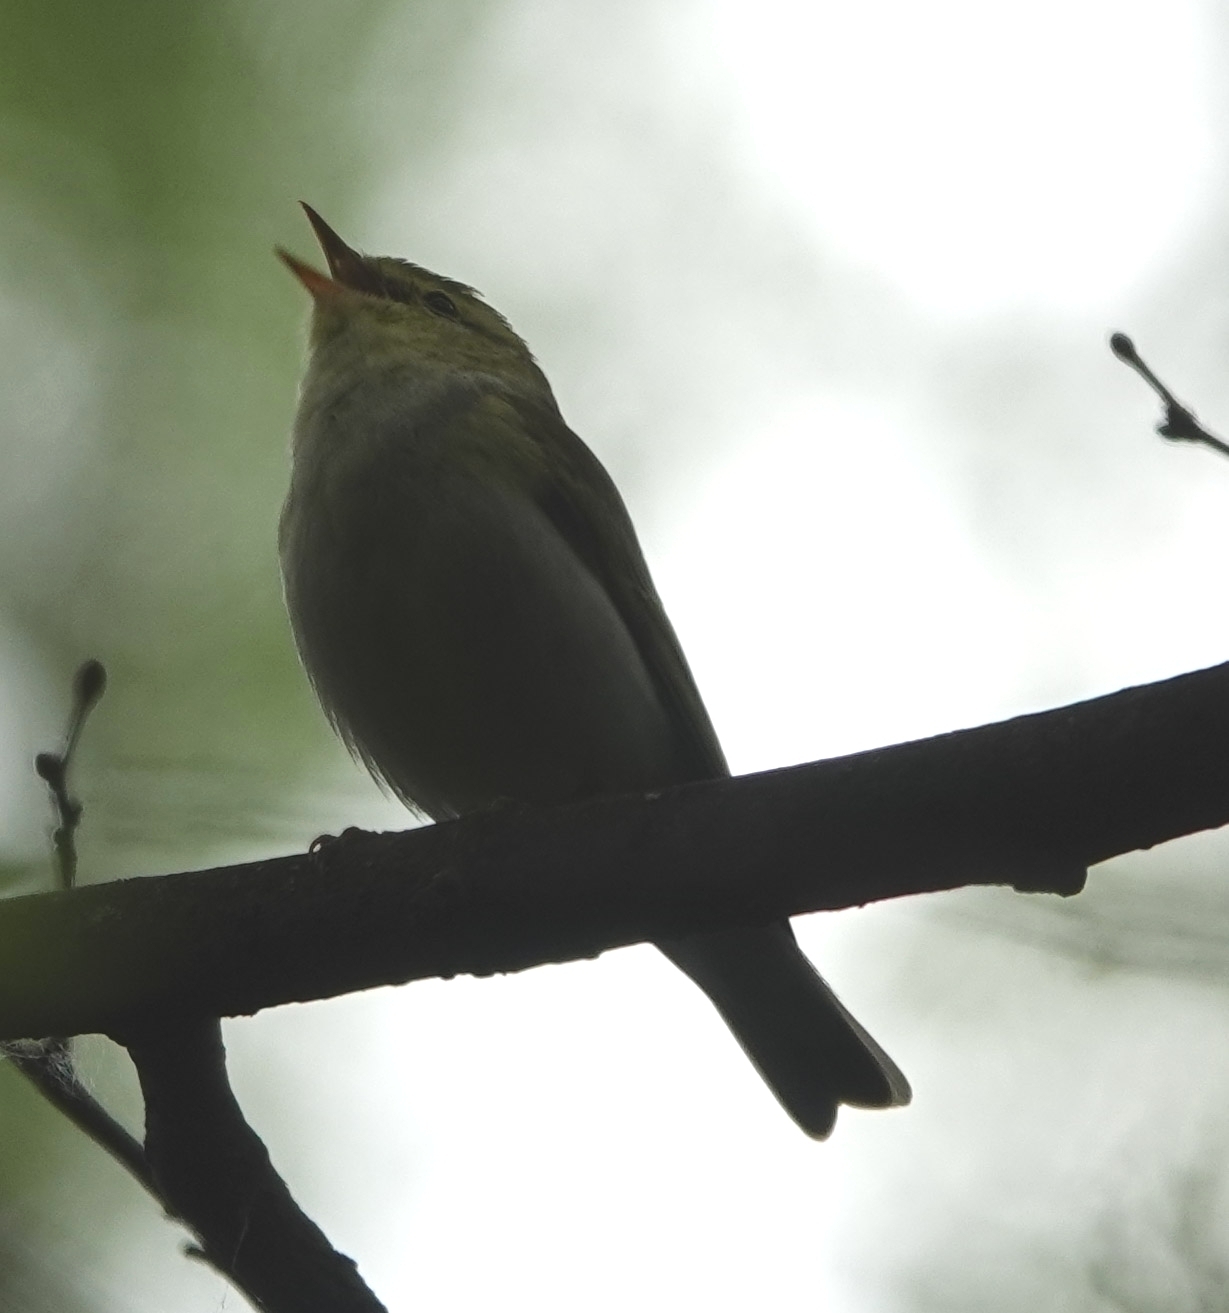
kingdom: Animalia
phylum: Chordata
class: Aves
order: Passeriformes
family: Phylloscopidae
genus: Phylloscopus
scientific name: Phylloscopus sibillatrix
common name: Wood warbler
